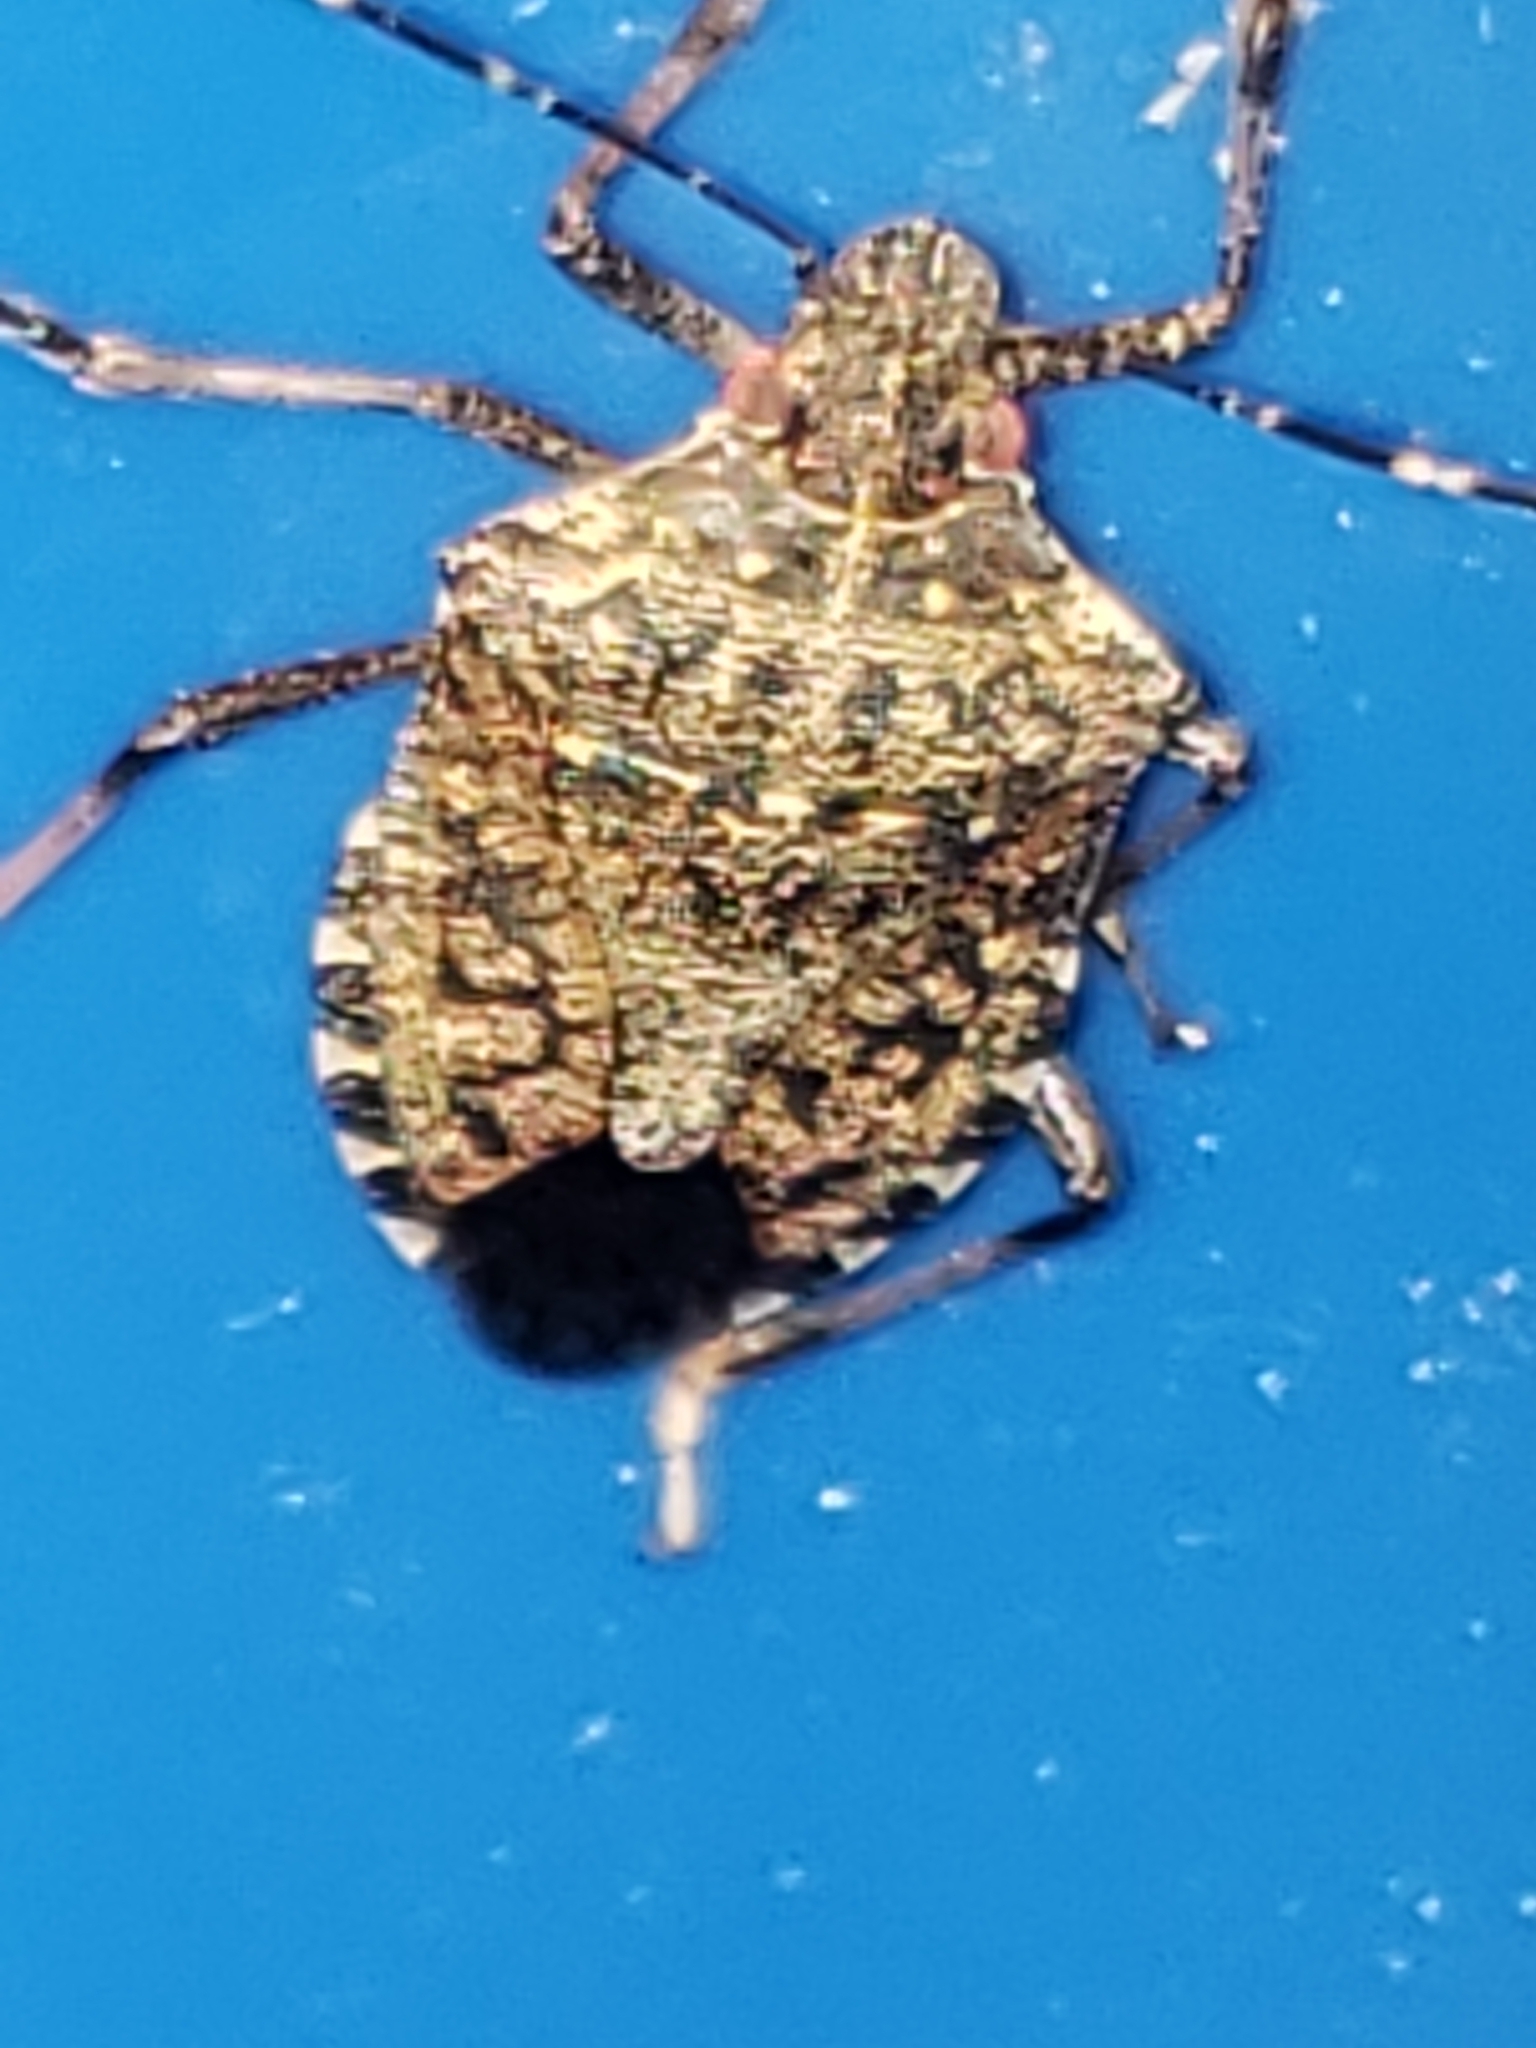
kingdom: Animalia
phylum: Arthropoda
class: Insecta
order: Hemiptera
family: Pentatomidae
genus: Halyomorpha
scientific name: Halyomorpha halys
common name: Brown marmorated stink bug
